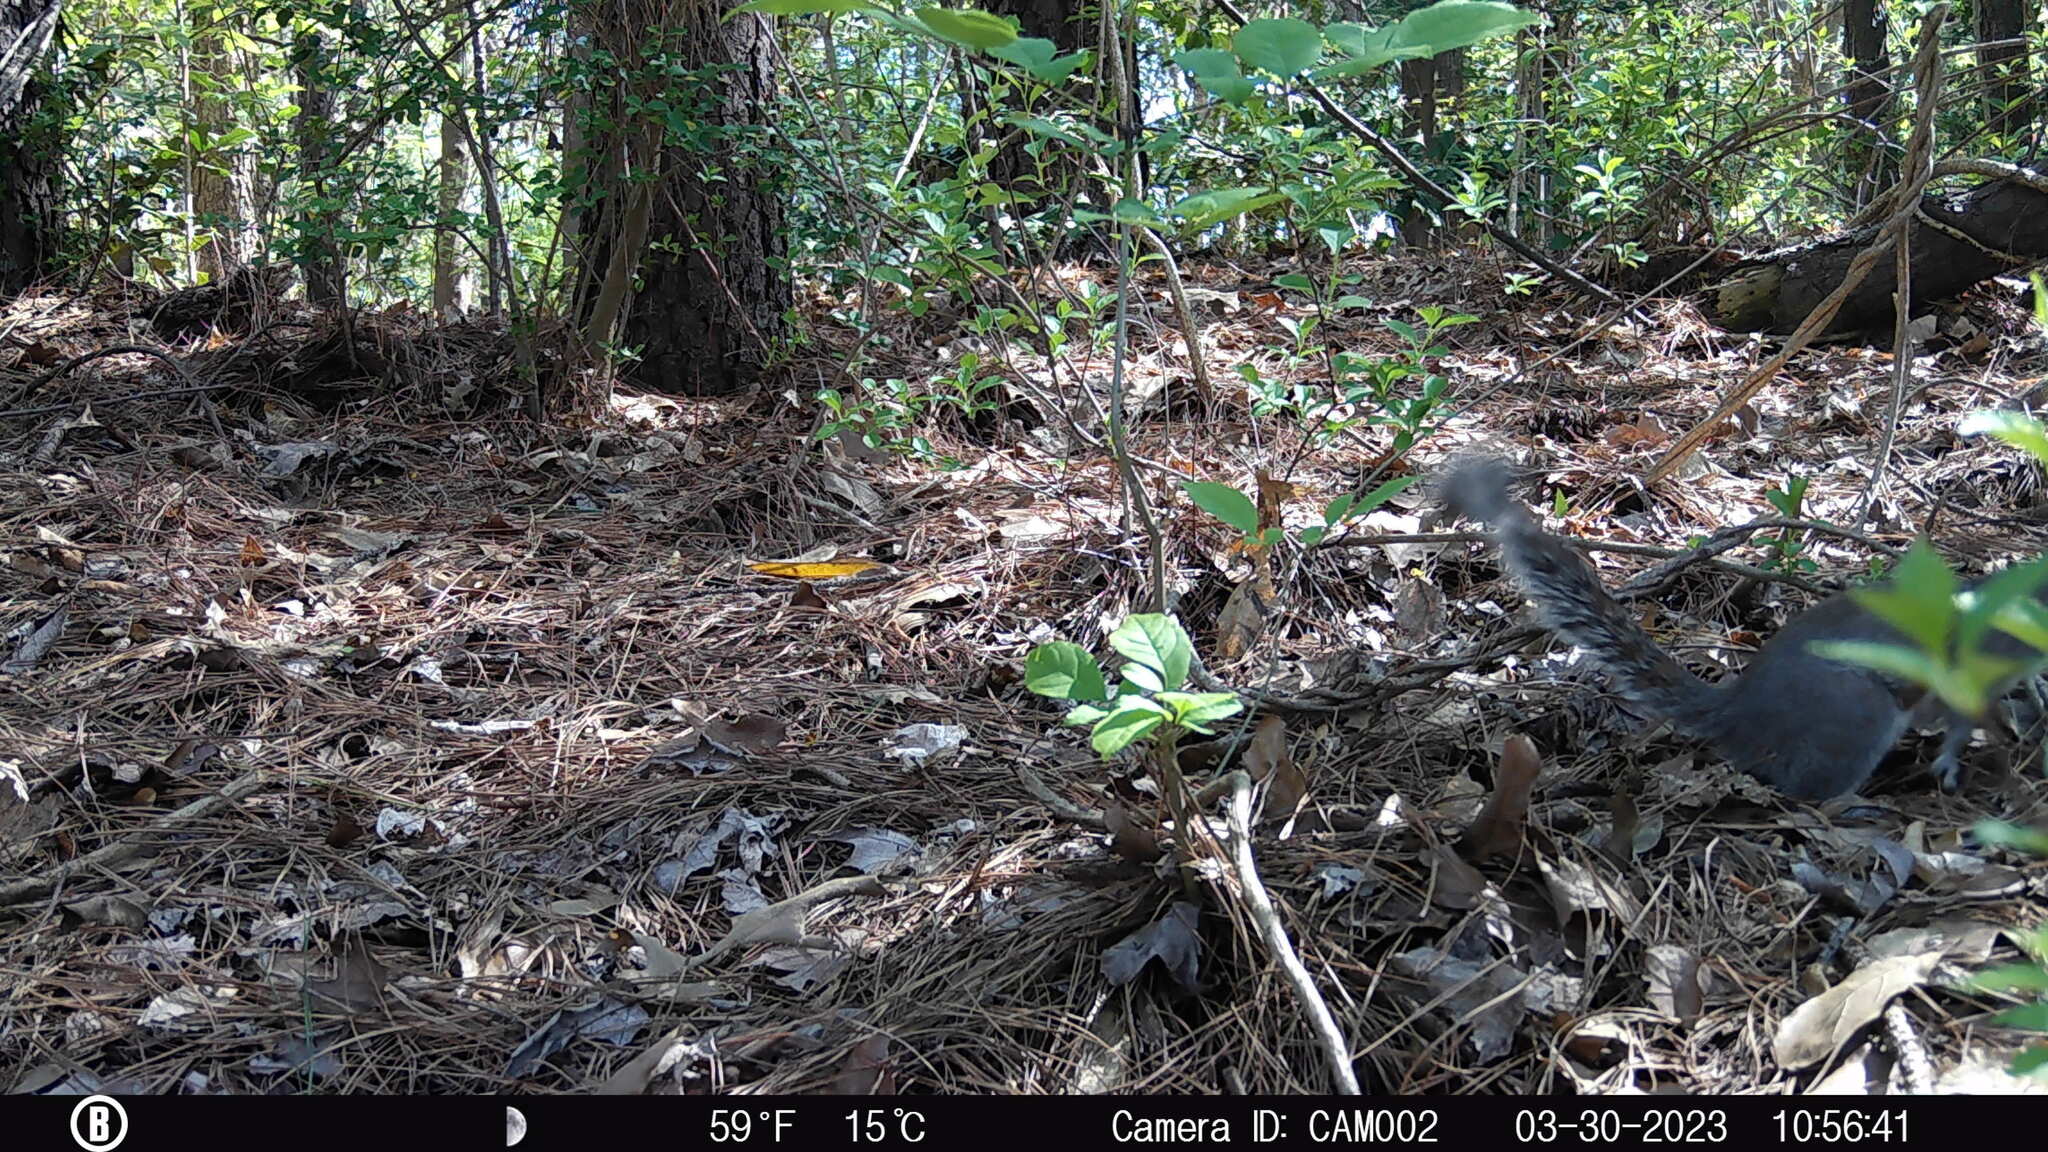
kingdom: Animalia
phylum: Chordata
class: Mammalia
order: Rodentia
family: Sciuridae
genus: Sciurus
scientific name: Sciurus carolinensis
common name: Eastern gray squirrel
